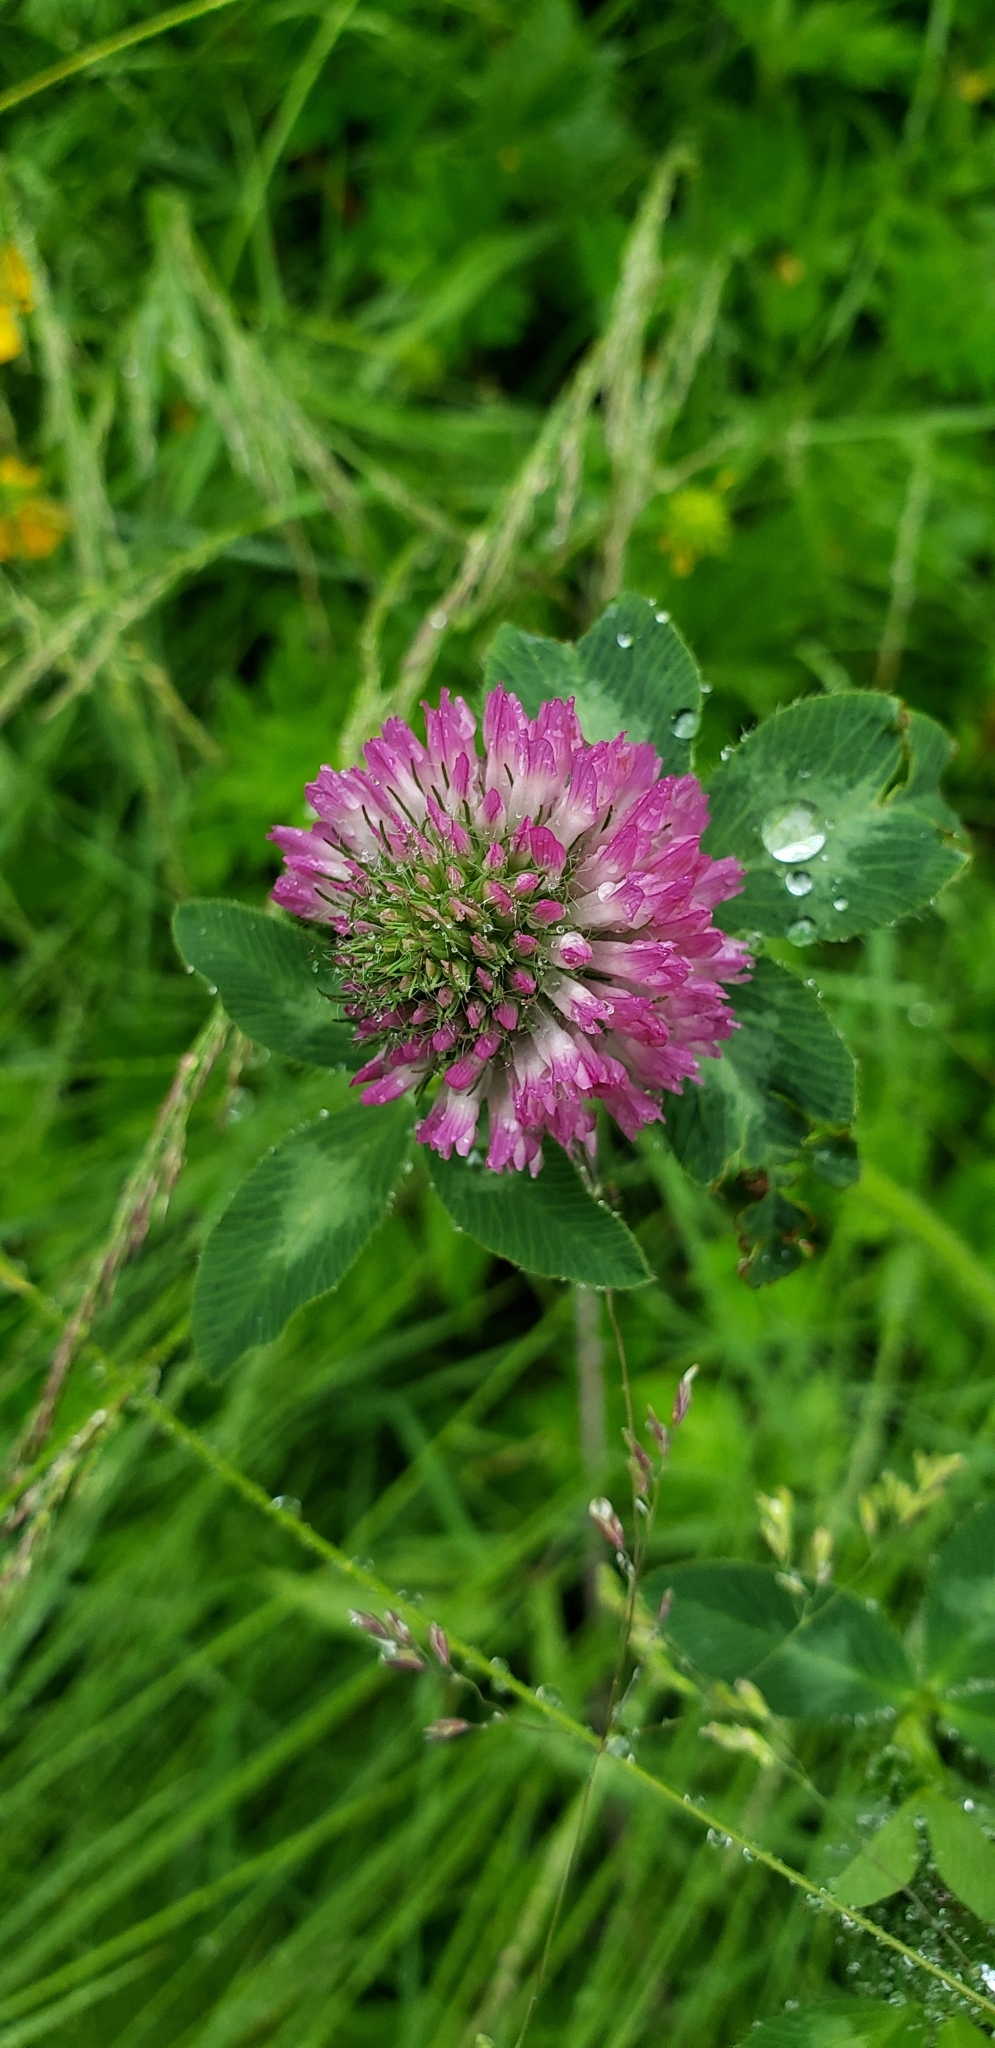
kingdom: Plantae
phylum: Tracheophyta
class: Magnoliopsida
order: Fabales
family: Fabaceae
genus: Trifolium
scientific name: Trifolium pratense
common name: Red clover
